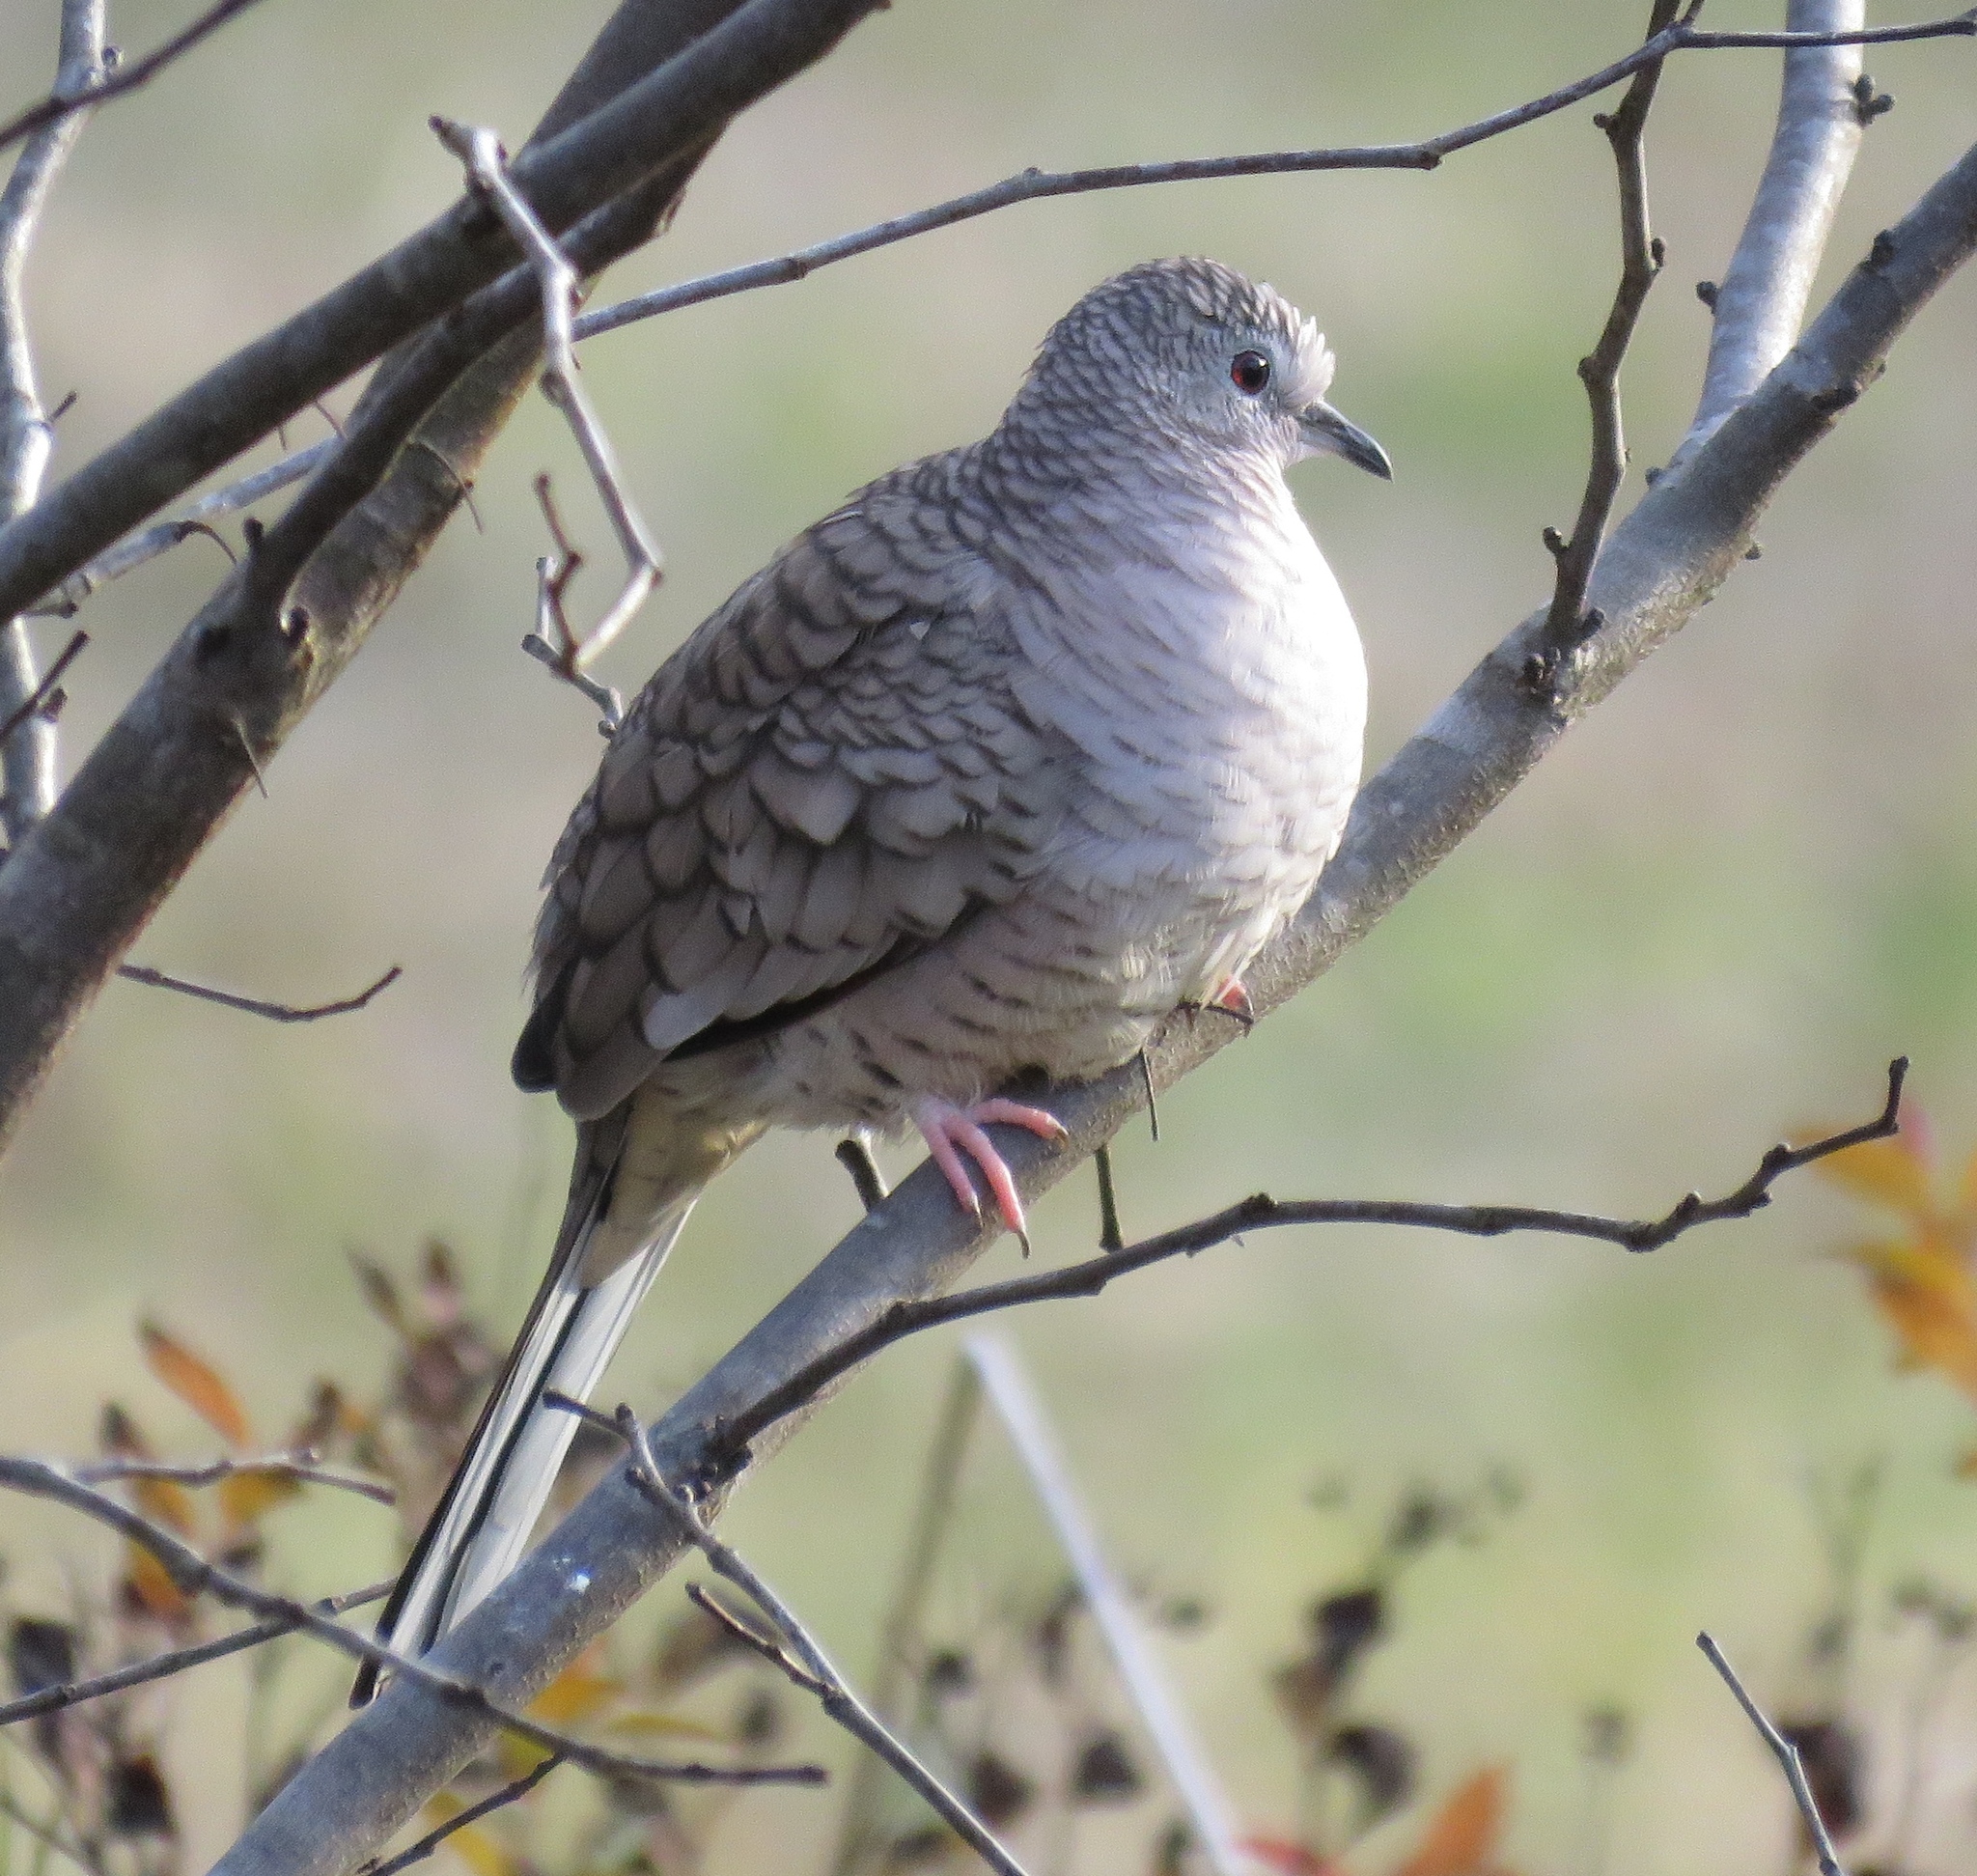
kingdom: Animalia
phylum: Chordata
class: Aves
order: Columbiformes
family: Columbidae
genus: Columbina
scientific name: Columbina inca
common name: Inca dove
